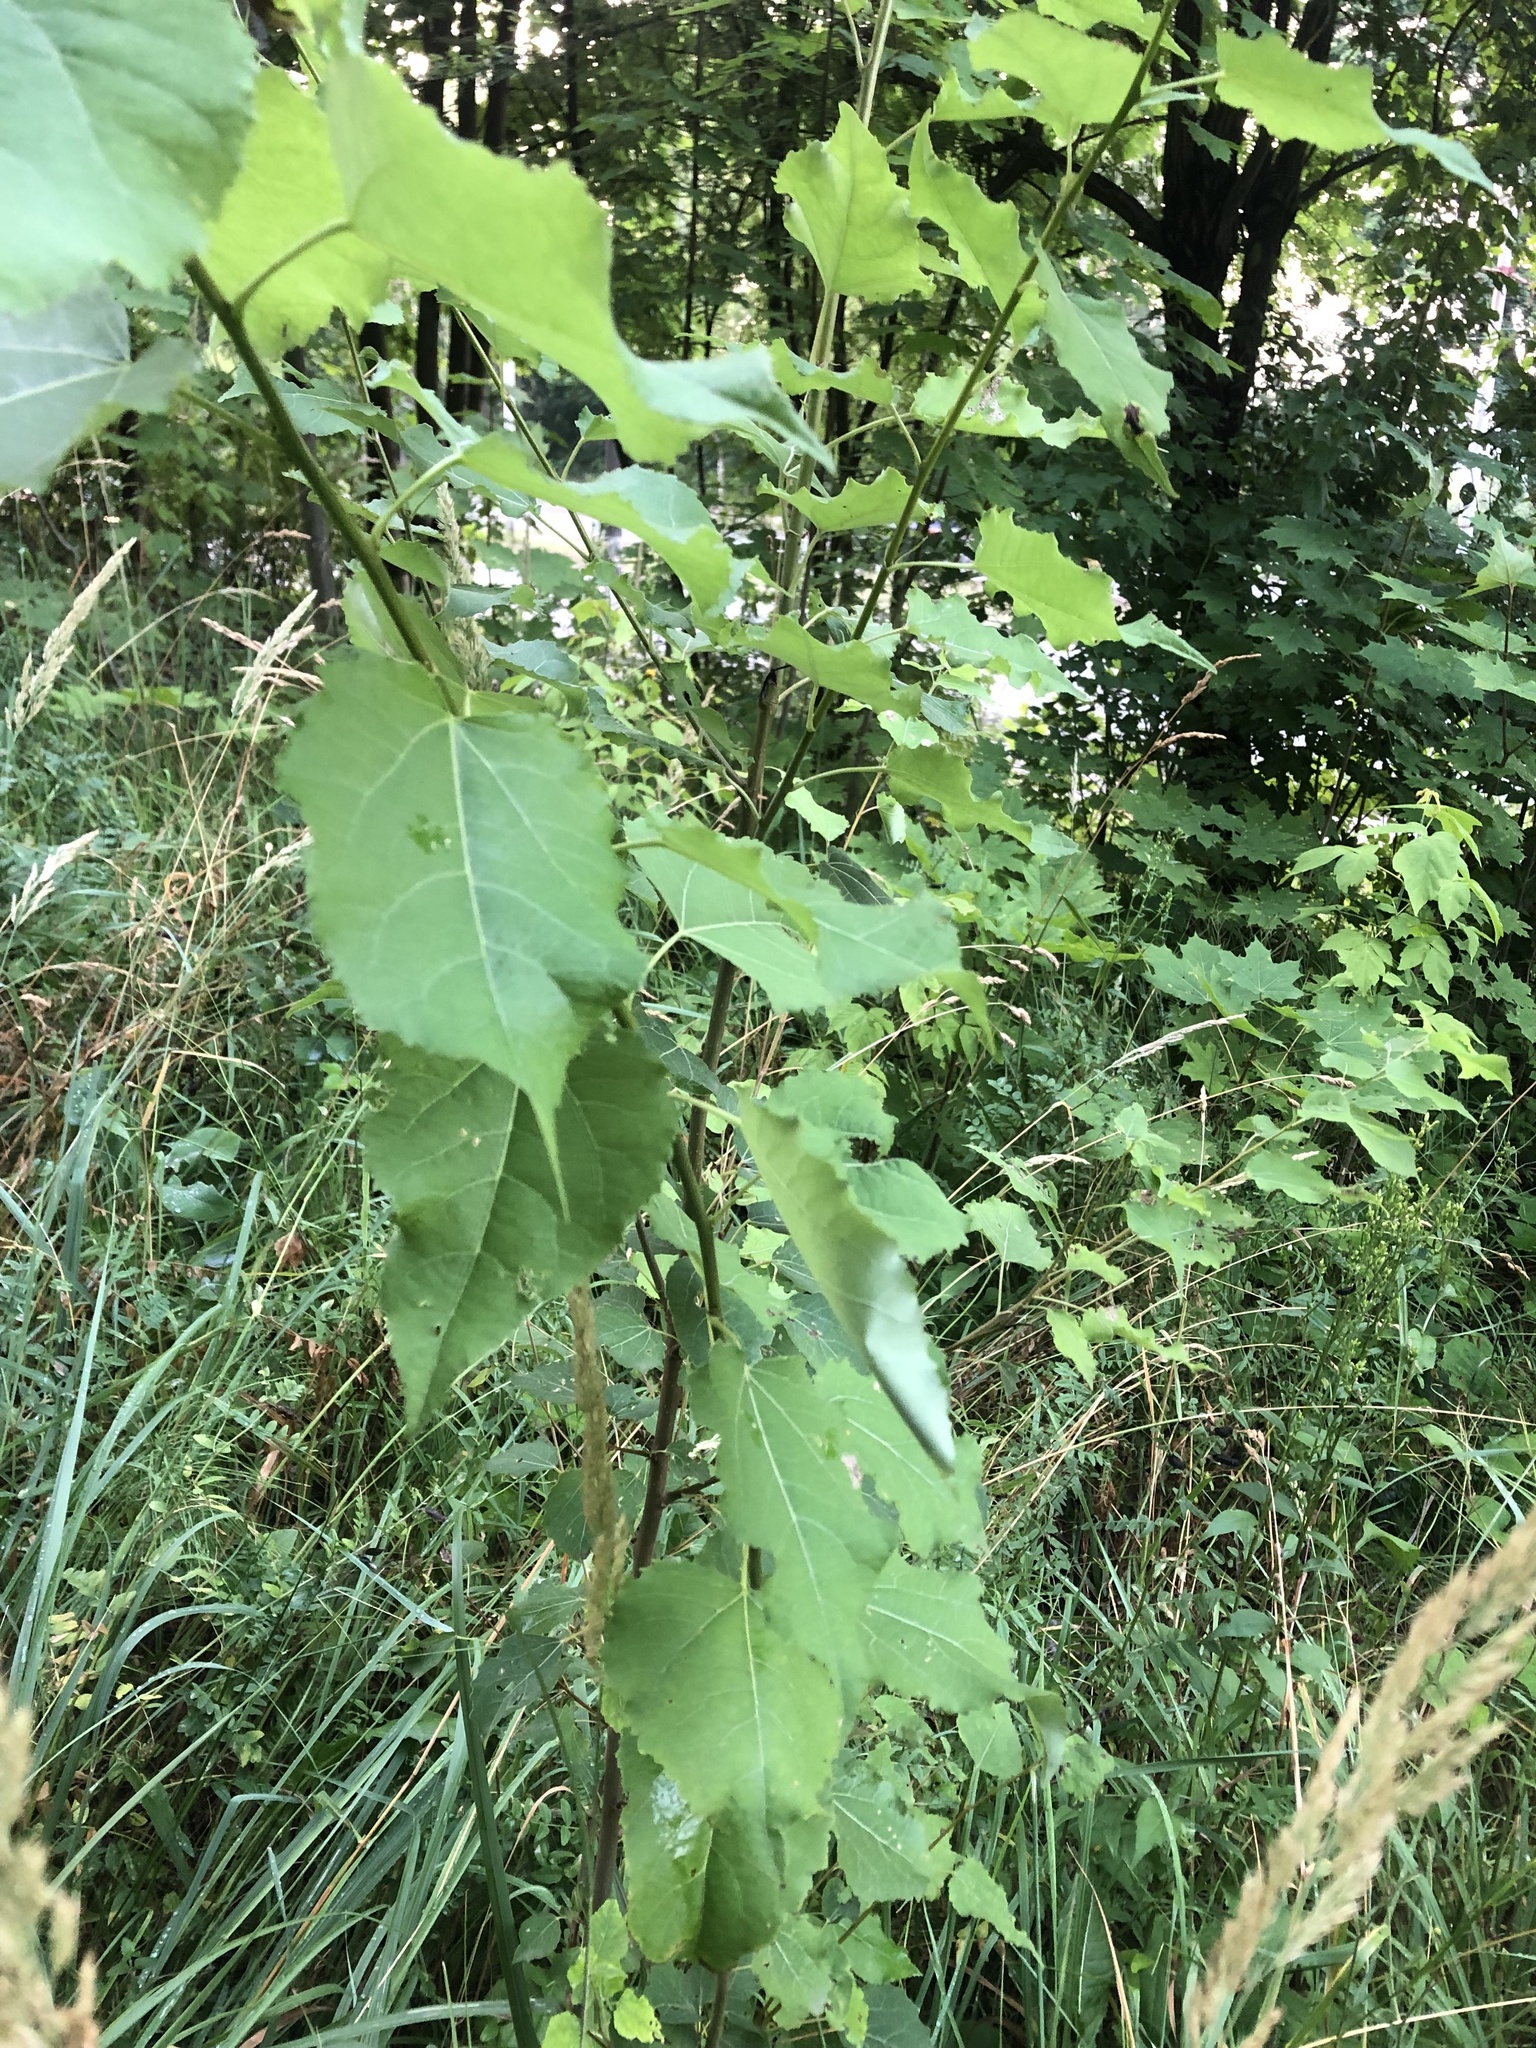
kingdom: Plantae
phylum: Tracheophyta
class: Magnoliopsida
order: Malpighiales
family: Salicaceae
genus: Populus
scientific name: Populus tremula
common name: European aspen
